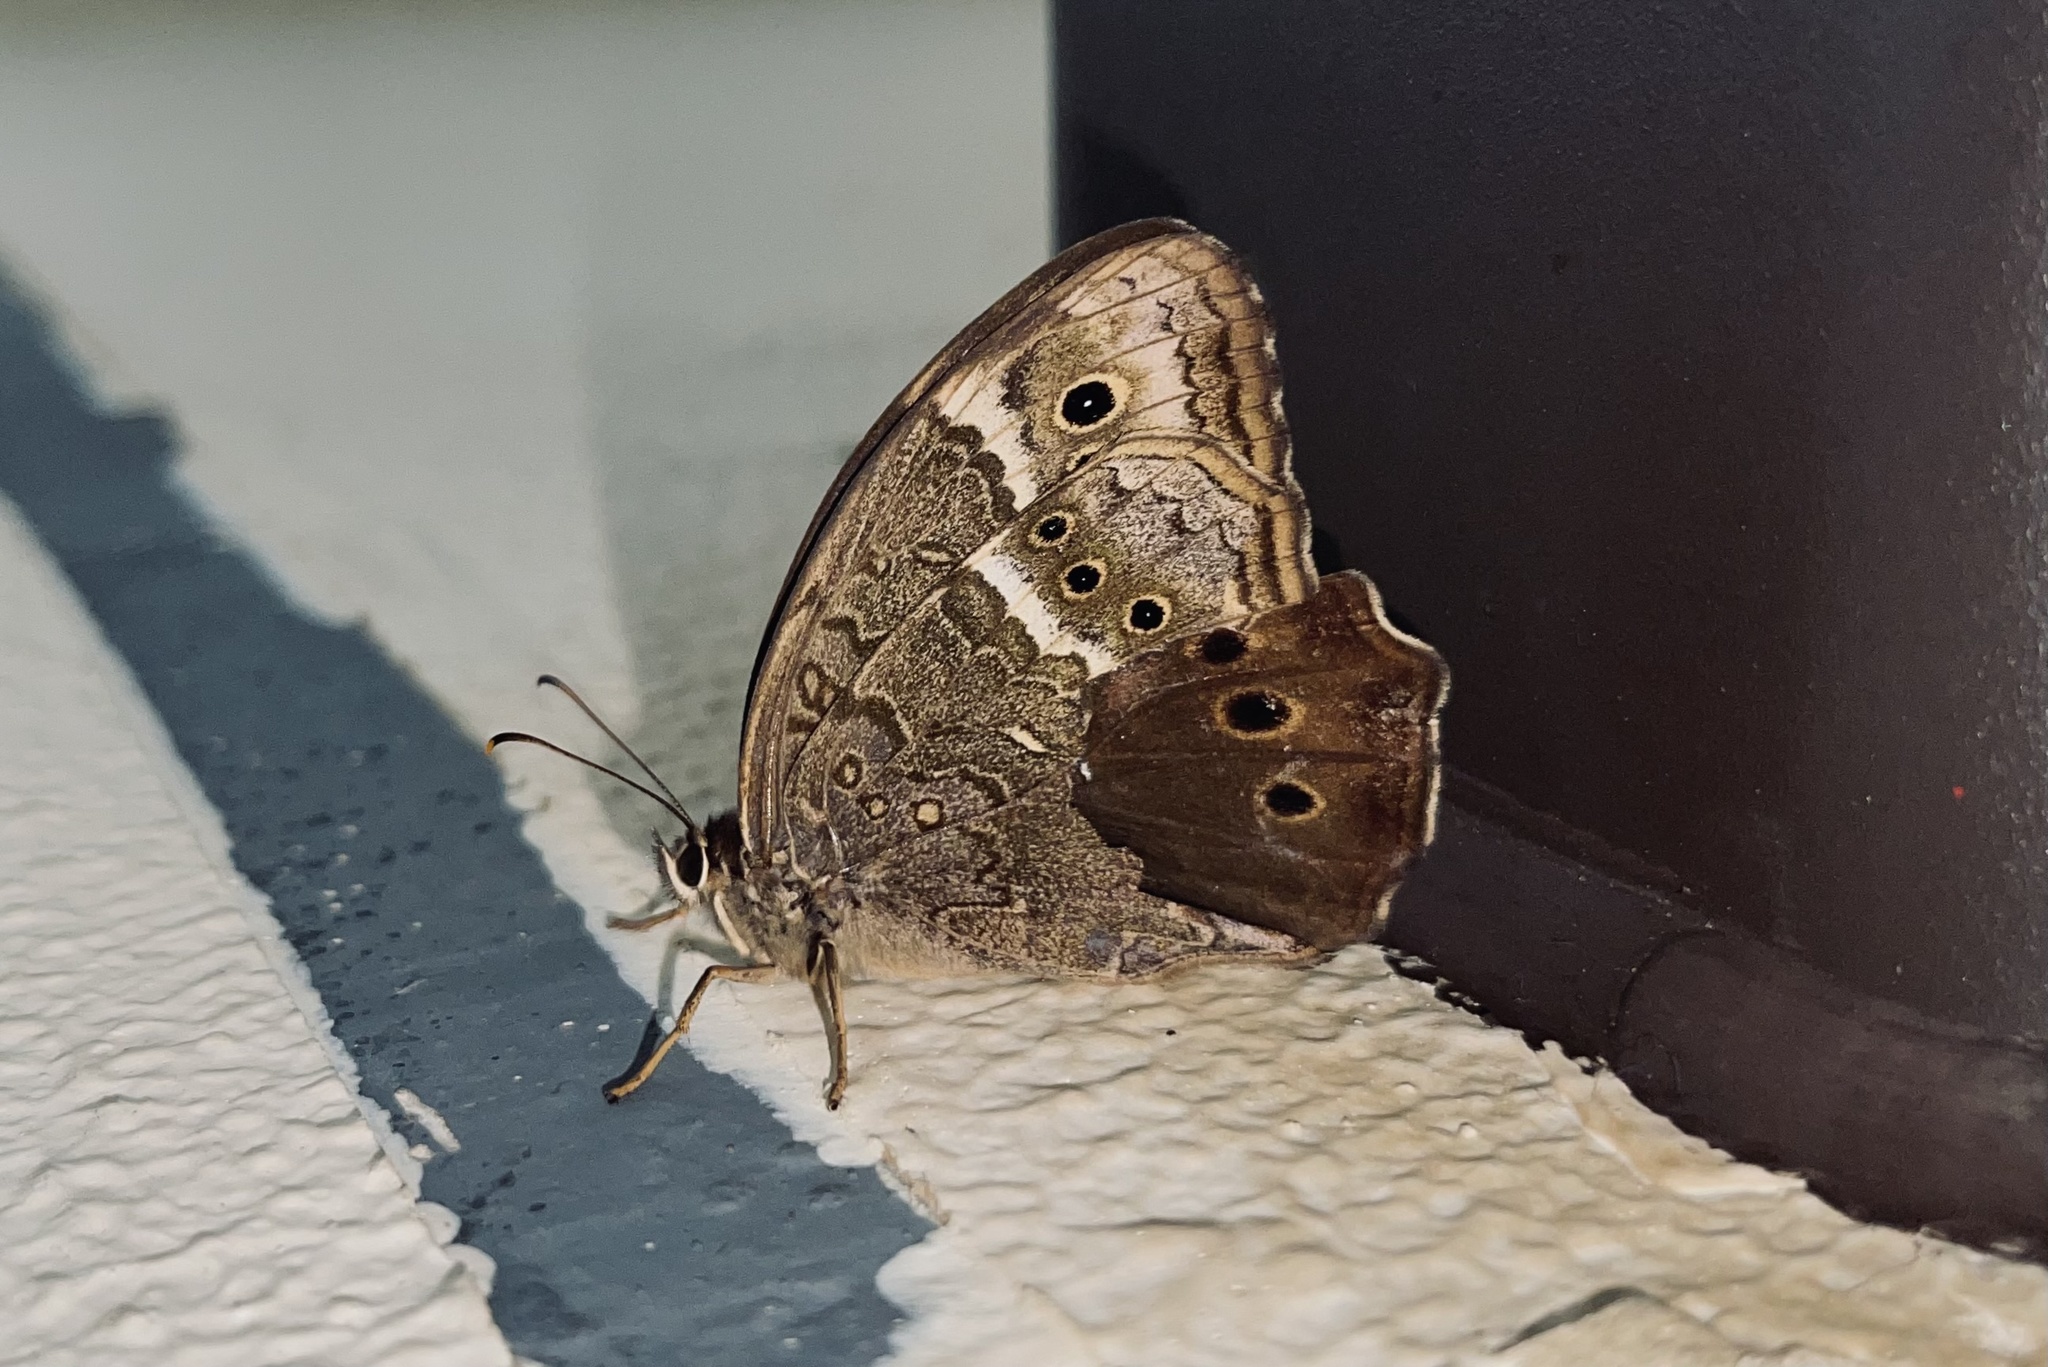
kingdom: Animalia
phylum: Arthropoda
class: Insecta
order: Lepidoptera
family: Nymphalidae
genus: Neope
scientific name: Neope muirheadii
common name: Black-spotted labyrinth
